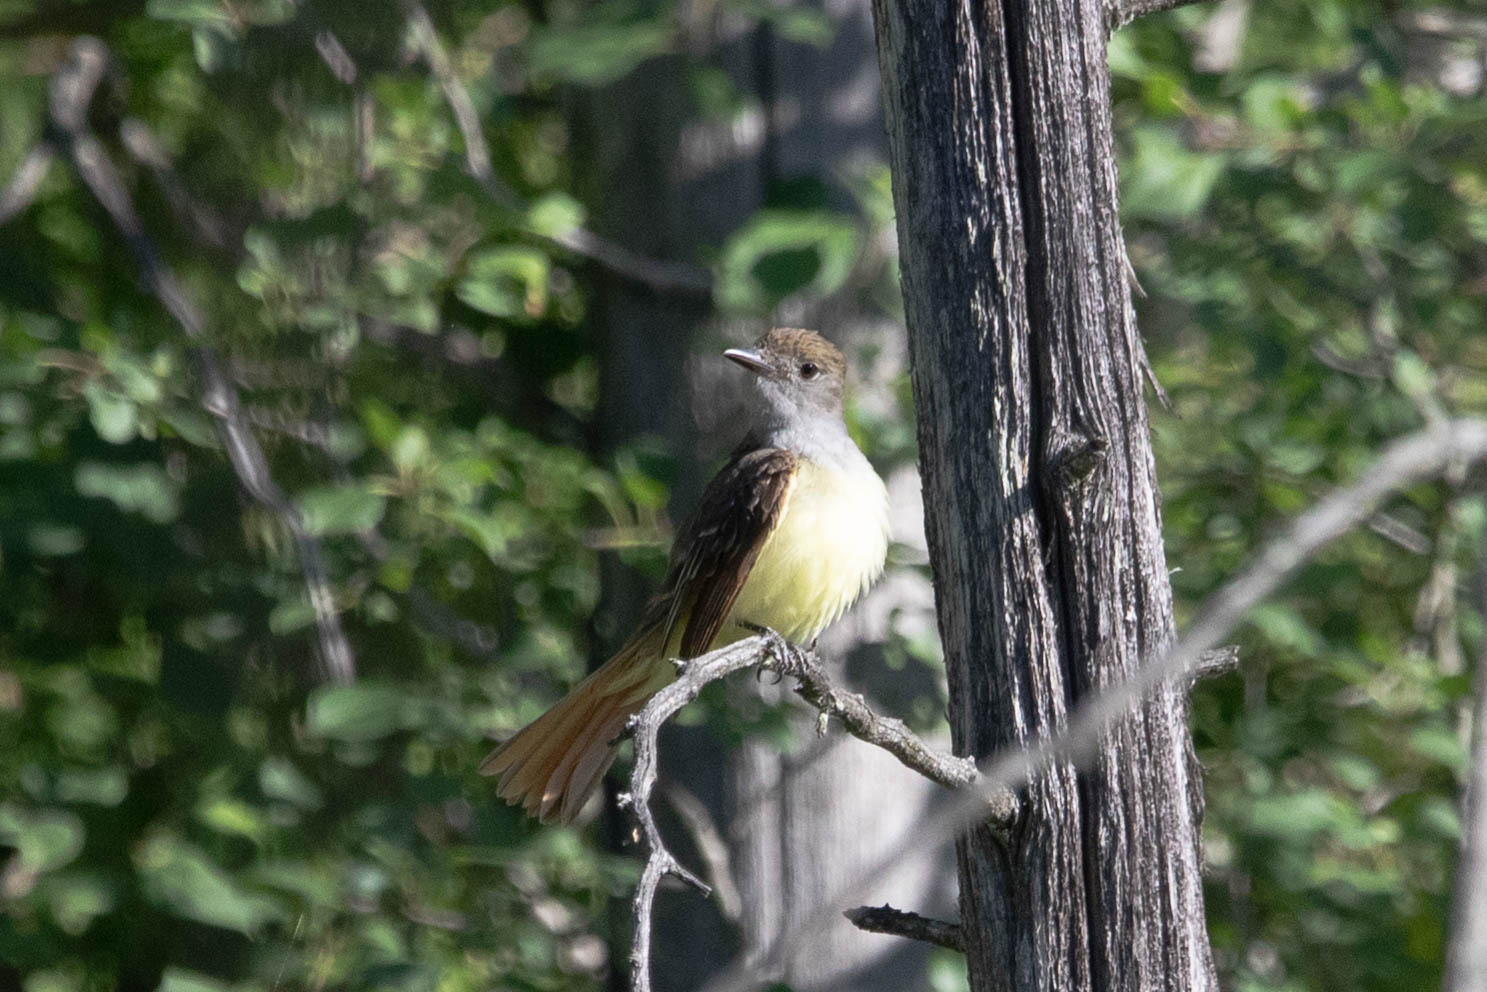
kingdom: Animalia
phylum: Chordata
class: Aves
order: Passeriformes
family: Tyrannidae
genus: Myiarchus
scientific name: Myiarchus crinitus
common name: Great crested flycatcher
